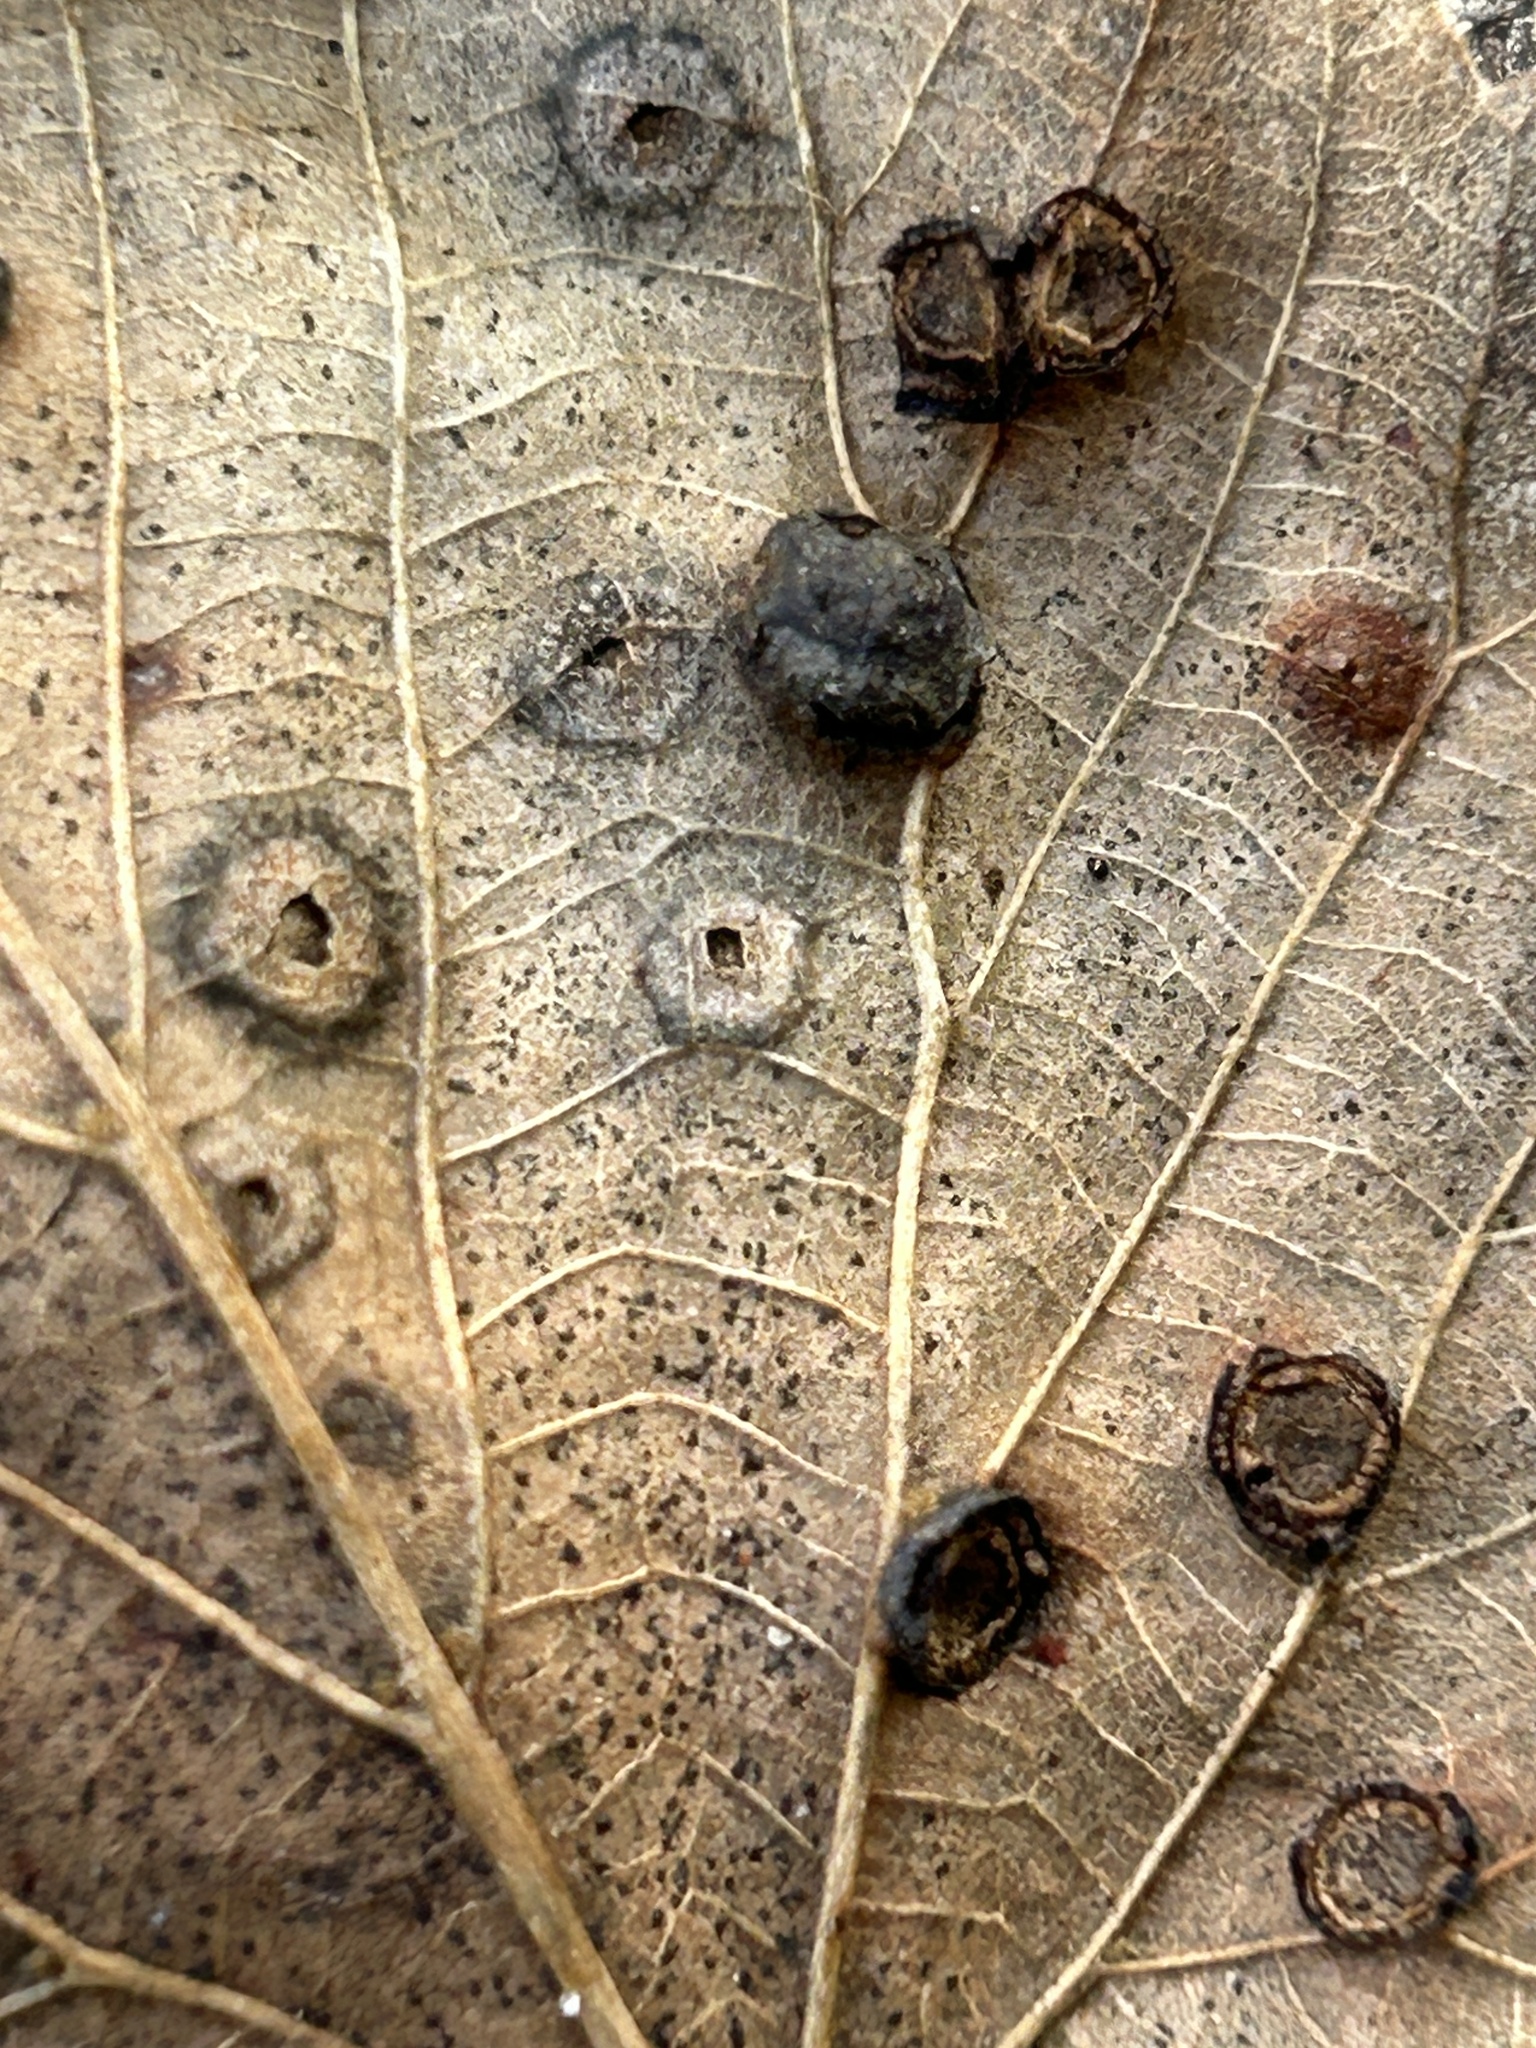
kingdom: Animalia
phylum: Arthropoda
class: Insecta
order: Diptera
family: Cecidomyiidae
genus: Contarinia
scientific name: Contarinia verrucicola
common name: Linden wart gall midge
